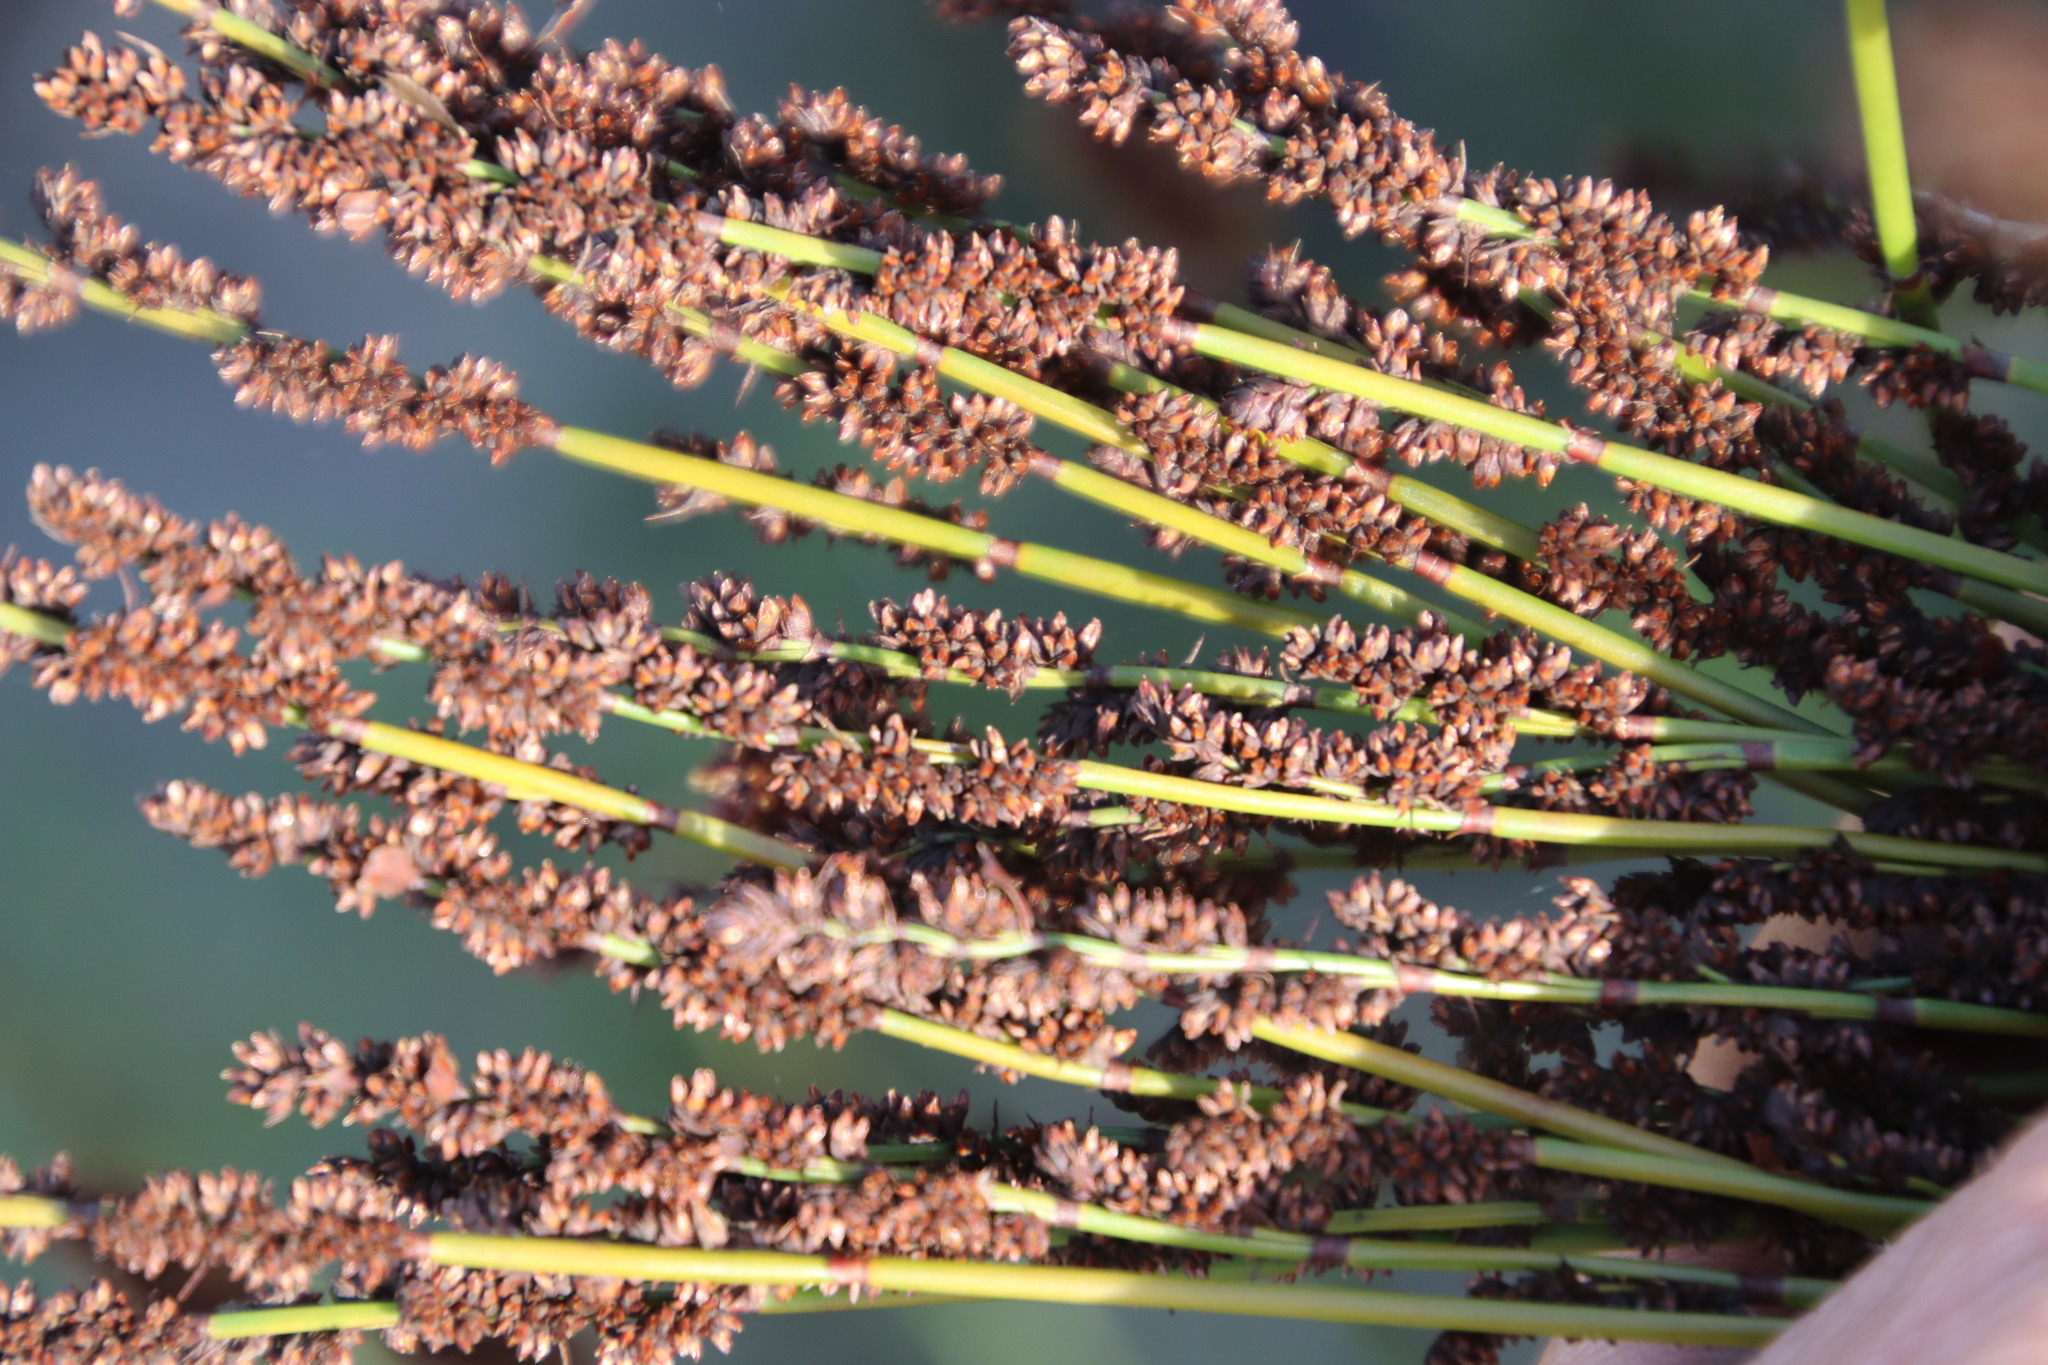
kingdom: Plantae
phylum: Tracheophyta
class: Liliopsida
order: Poales
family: Restionaceae
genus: Elegia
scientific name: Elegia tectorum
